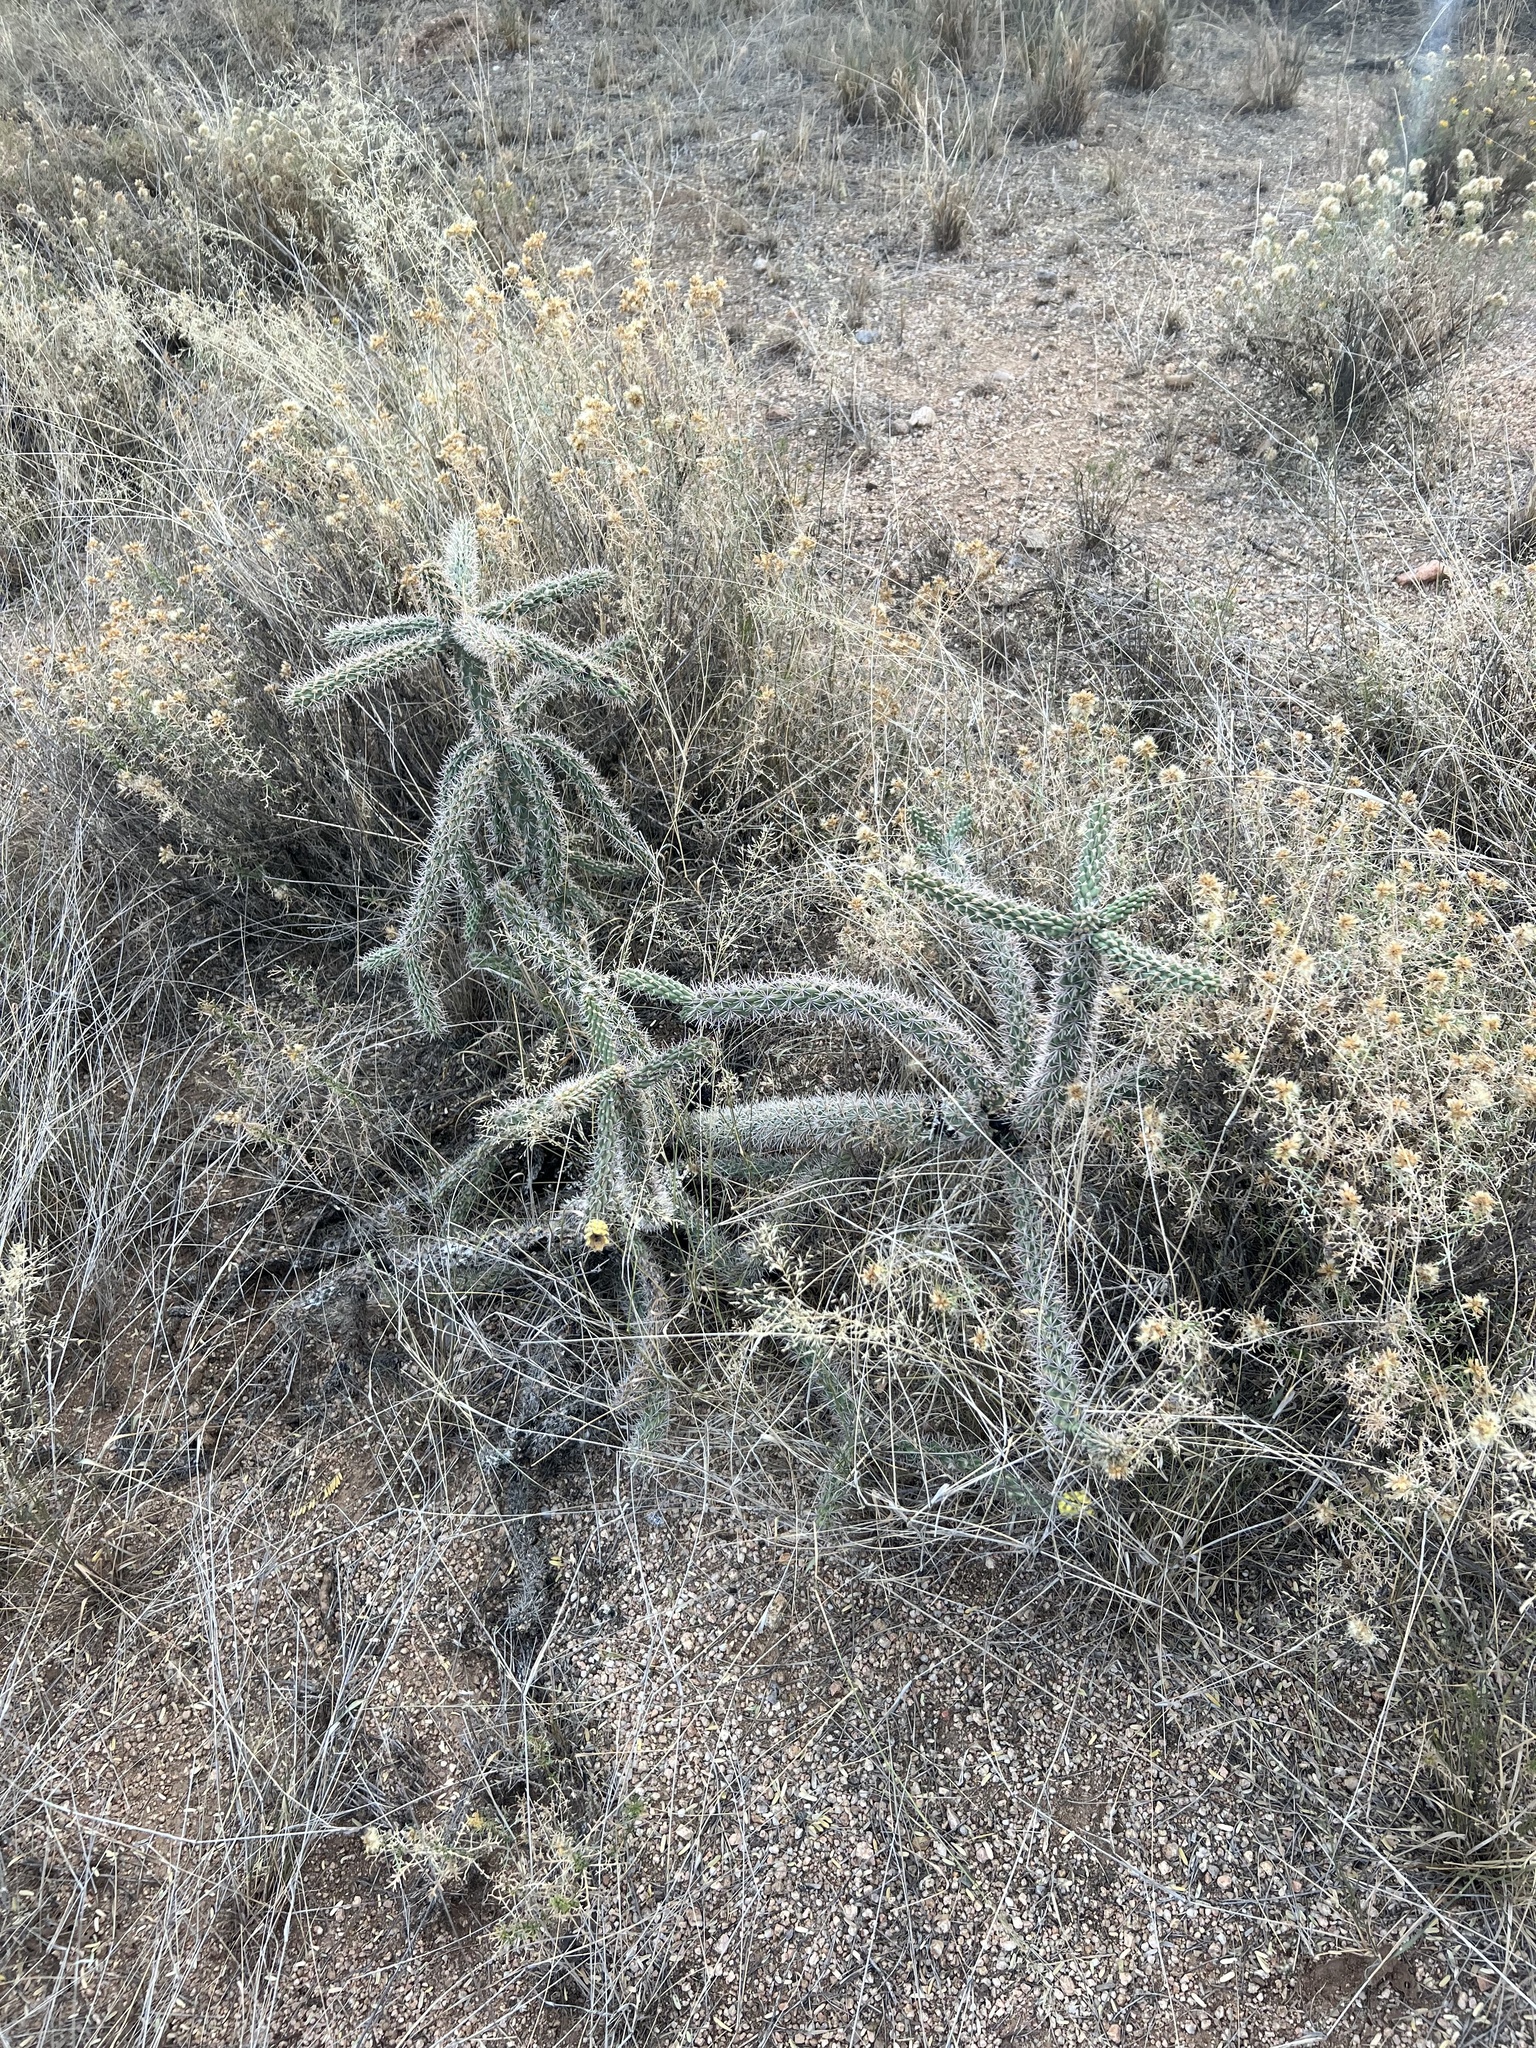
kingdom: Plantae
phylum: Tracheophyta
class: Magnoliopsida
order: Caryophyllales
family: Cactaceae
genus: Cylindropuntia
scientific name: Cylindropuntia imbricata
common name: Candelabrum cactus
